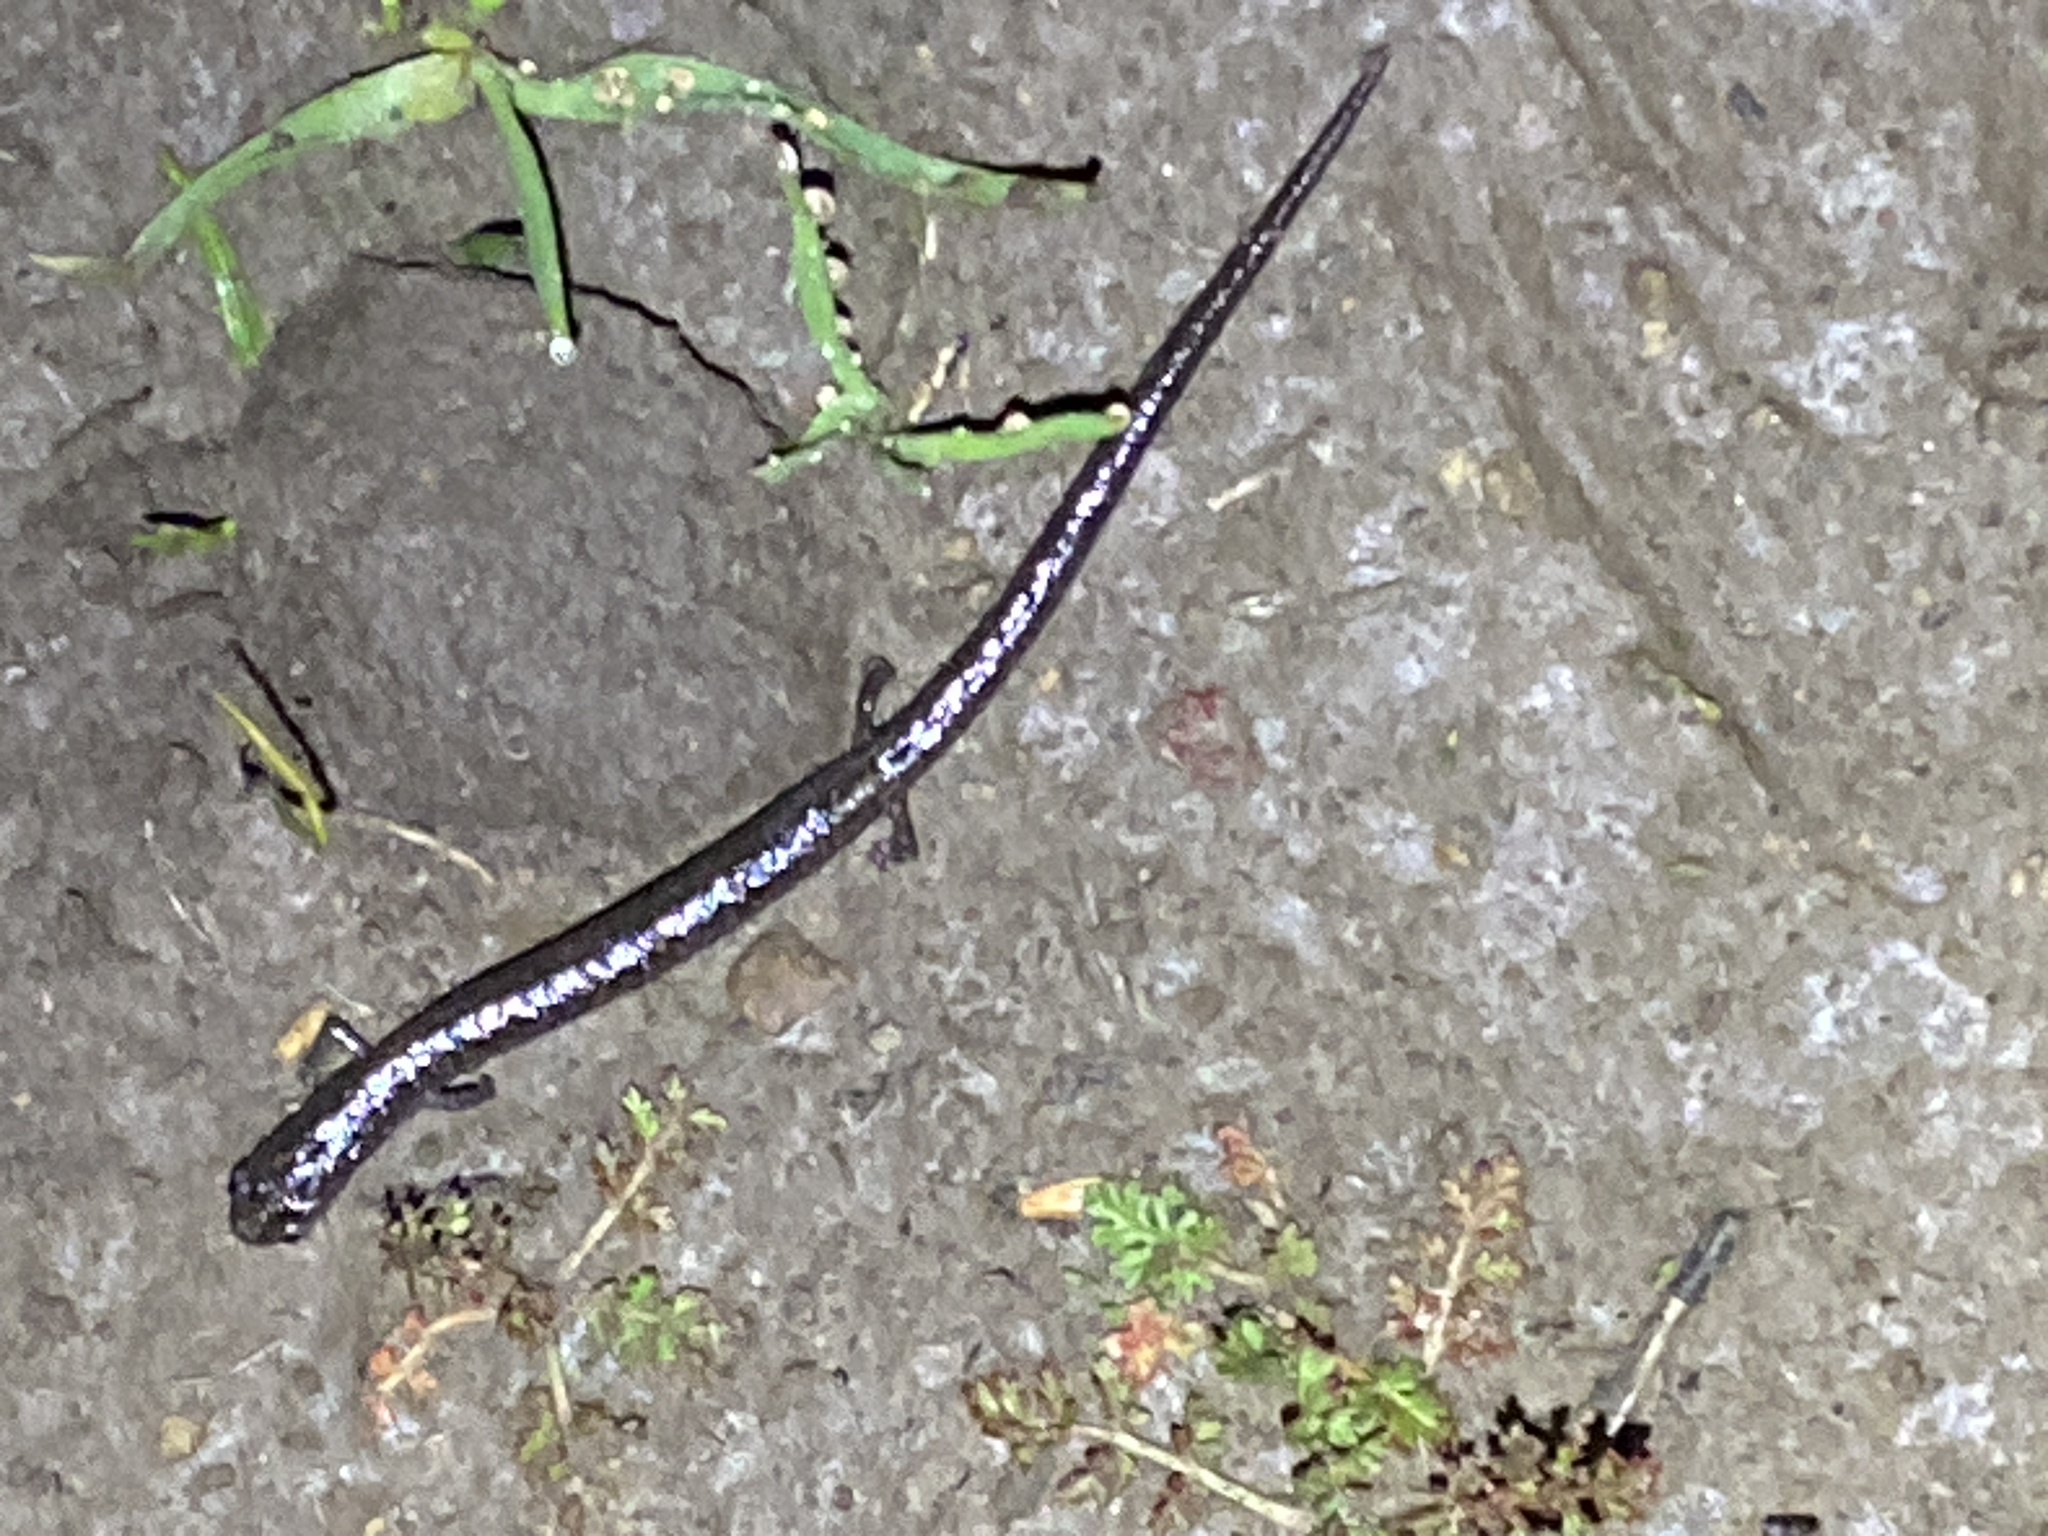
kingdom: Animalia
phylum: Chordata
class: Amphibia
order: Caudata
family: Plethodontidae
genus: Batrachoseps
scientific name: Batrachoseps attenuatus
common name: California slender salamander
